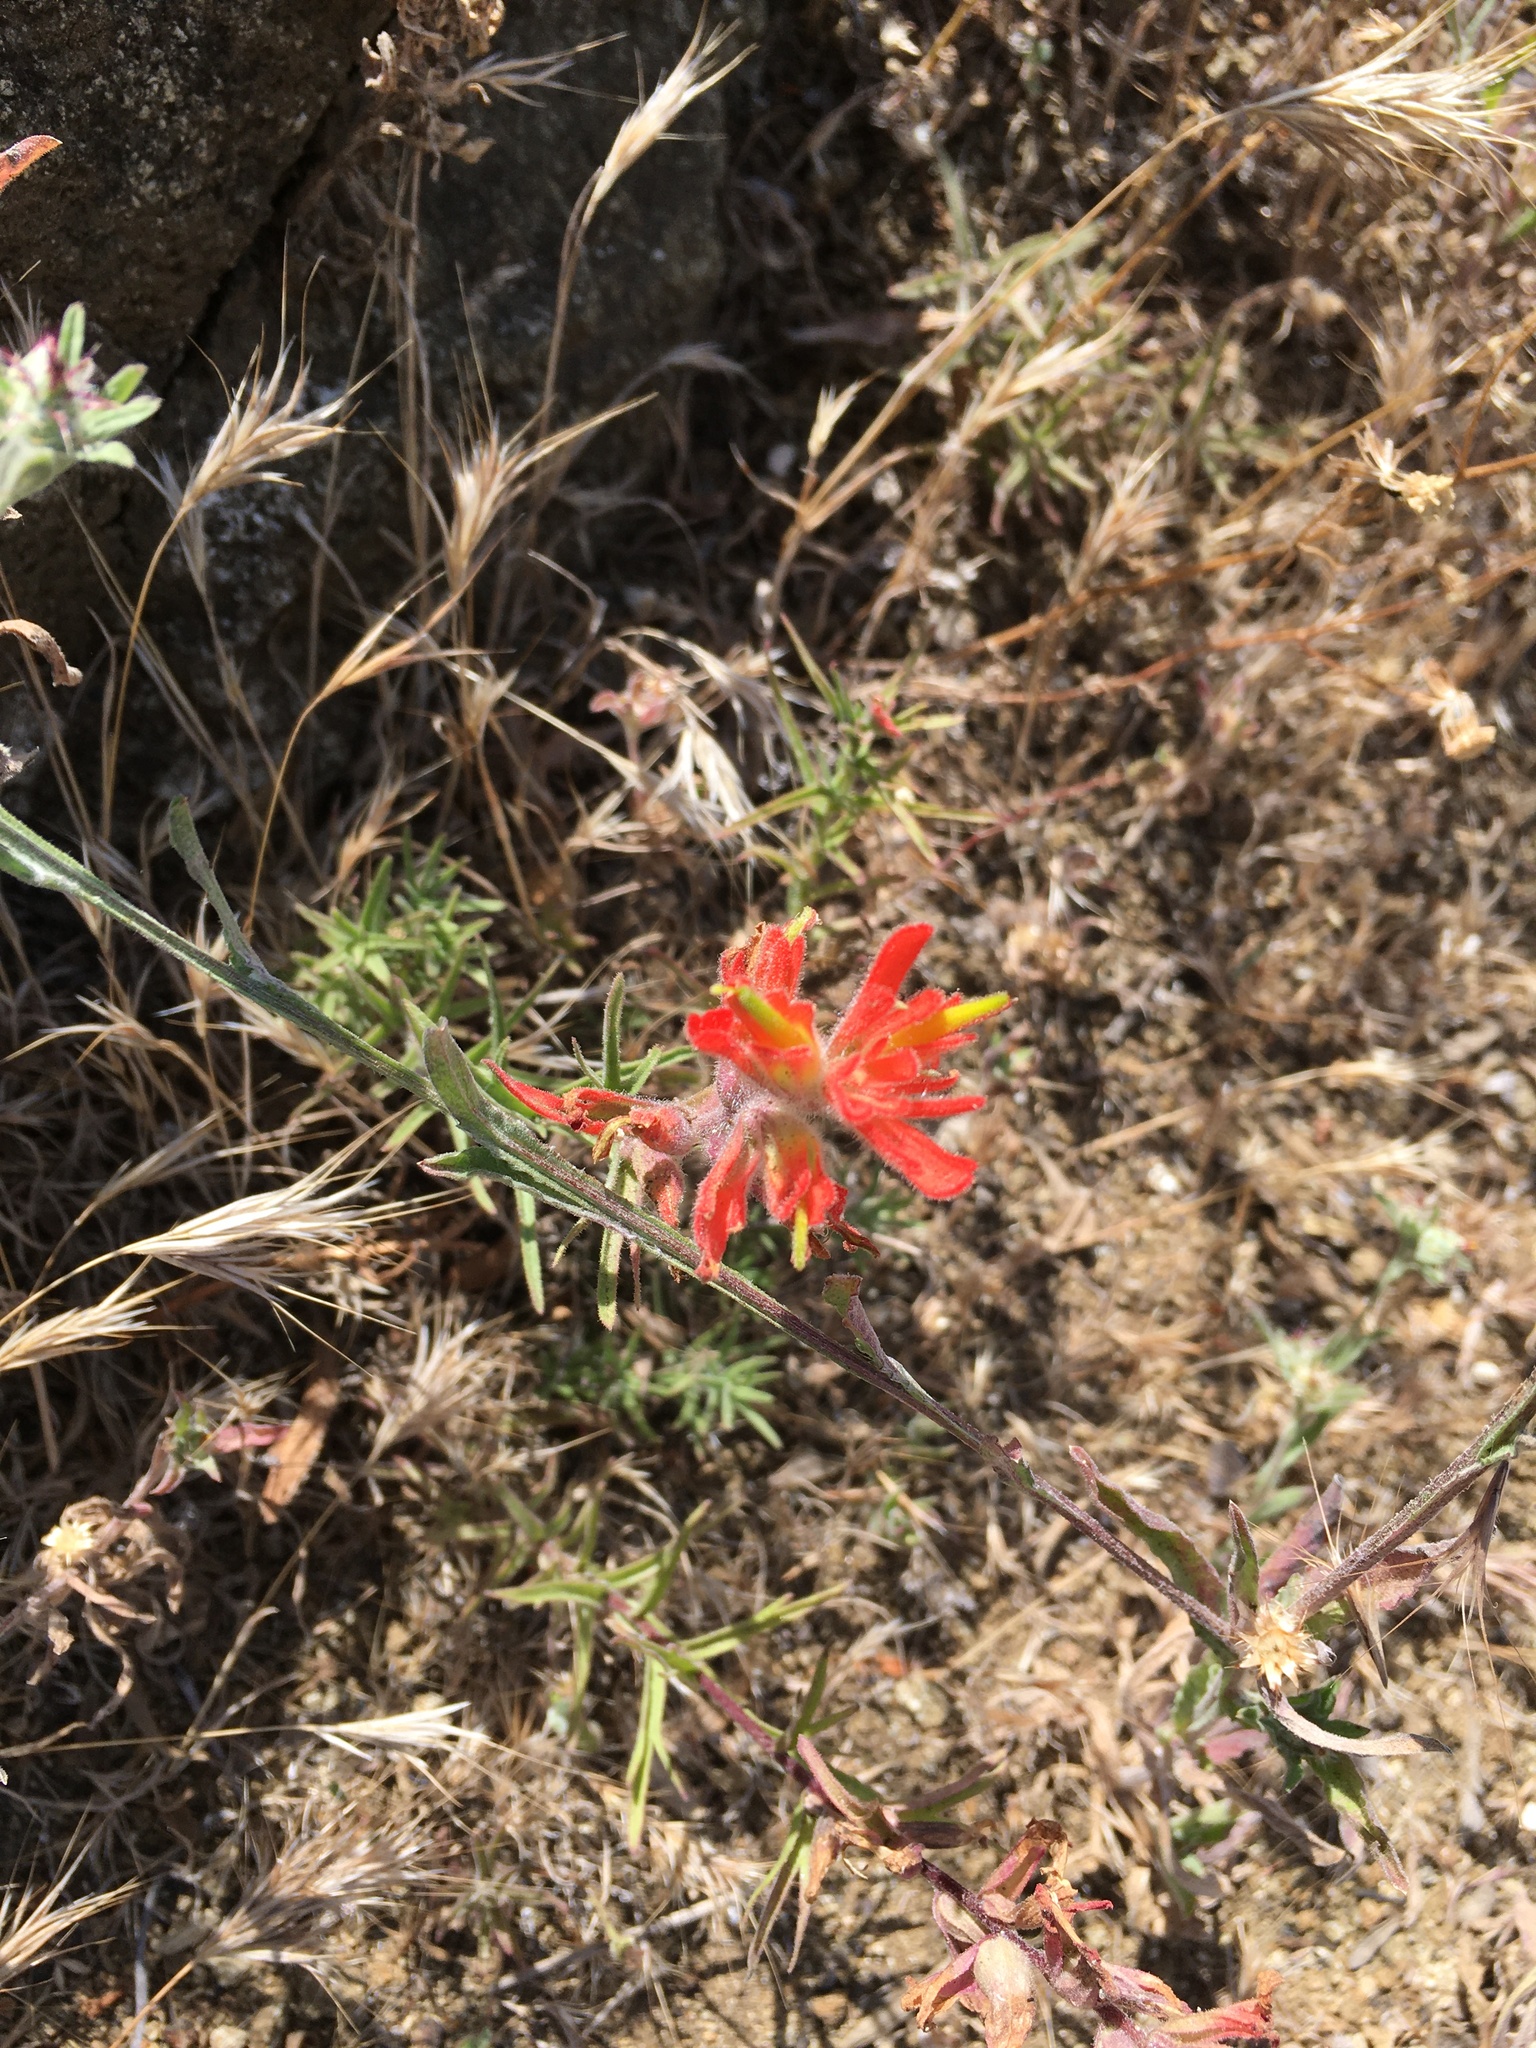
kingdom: Plantae
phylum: Tracheophyta
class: Magnoliopsida
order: Lamiales
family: Orobanchaceae
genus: Castilleja
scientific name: Castilleja affinis
